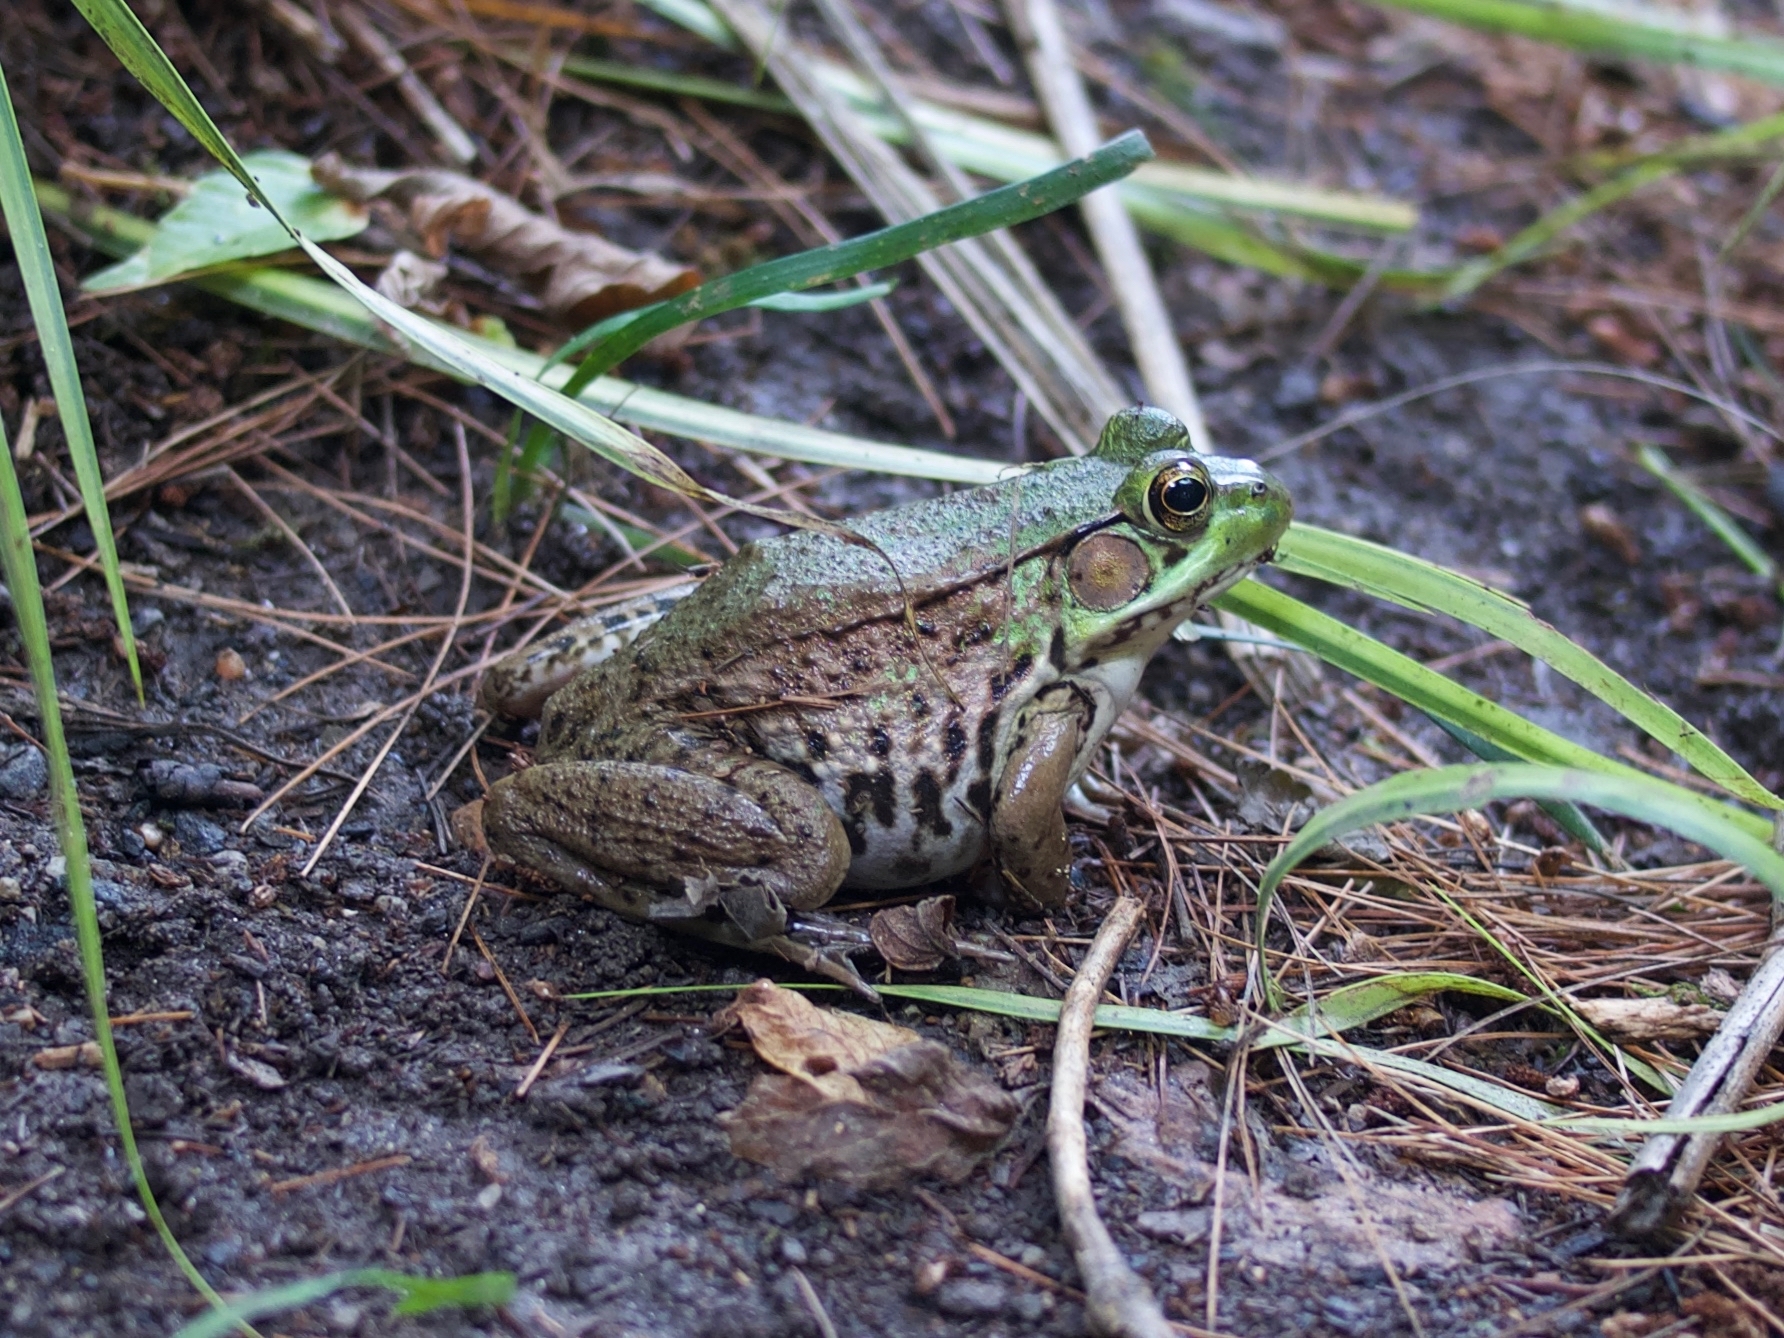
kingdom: Animalia
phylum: Chordata
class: Amphibia
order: Anura
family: Ranidae
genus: Lithobates
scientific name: Lithobates clamitans
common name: Green frog
